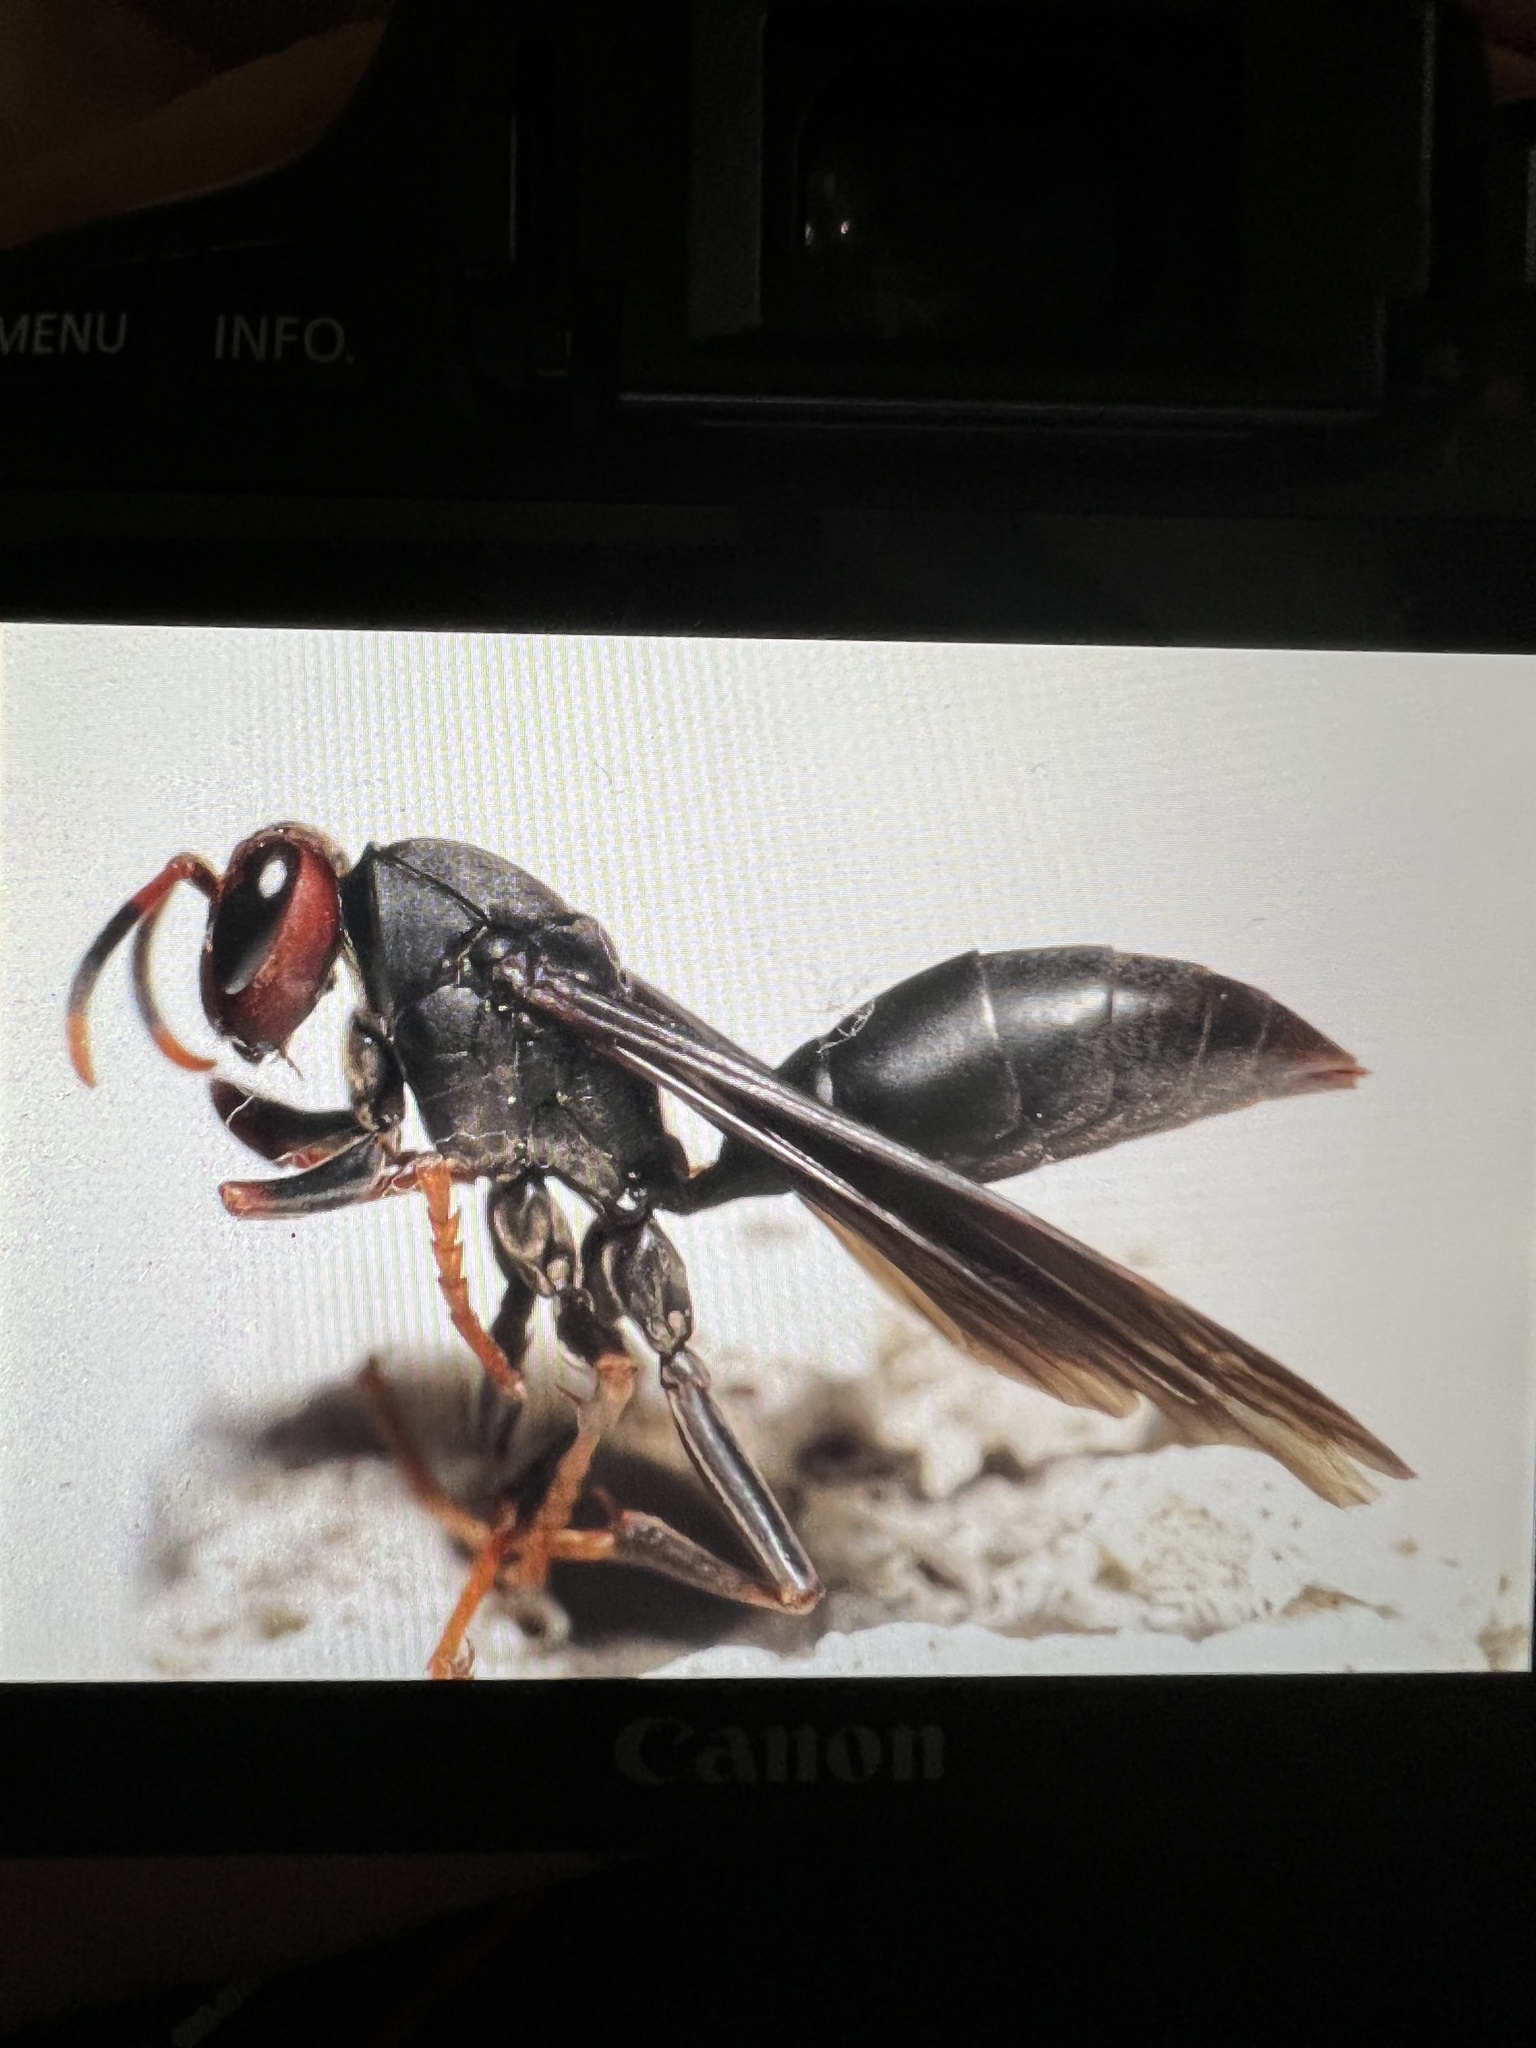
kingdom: Animalia
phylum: Arthropoda
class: Insecta
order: Hymenoptera
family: Eumenidae
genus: Polistes
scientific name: Polistes erythrocephalus
